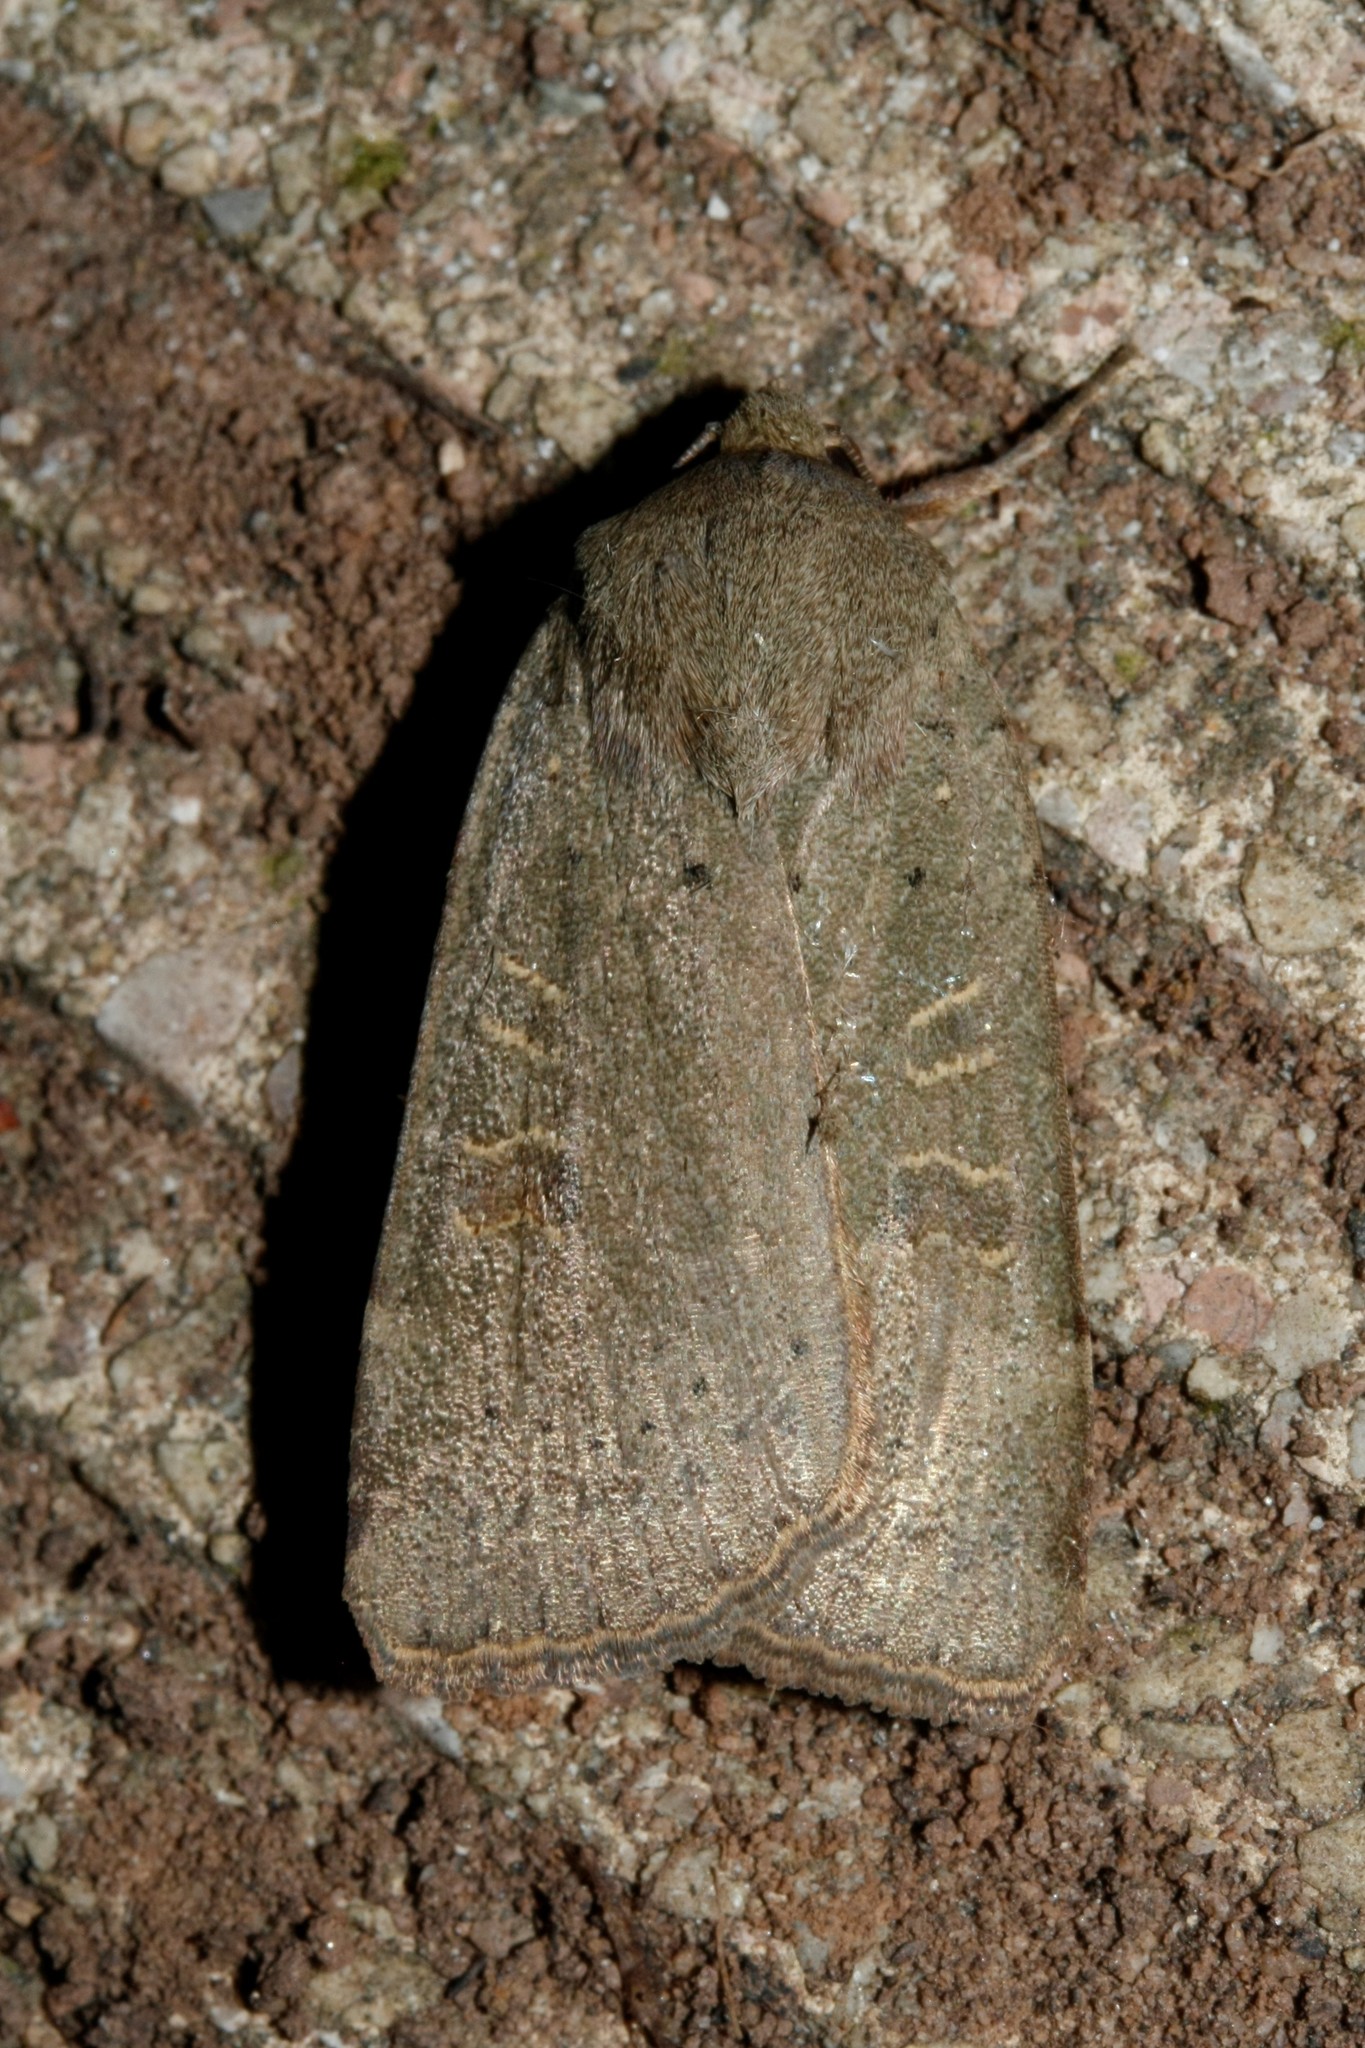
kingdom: Animalia
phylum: Arthropoda
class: Insecta
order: Lepidoptera
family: Noctuidae
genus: Noctua
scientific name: Noctua comes
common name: Lesser yellow underwing
